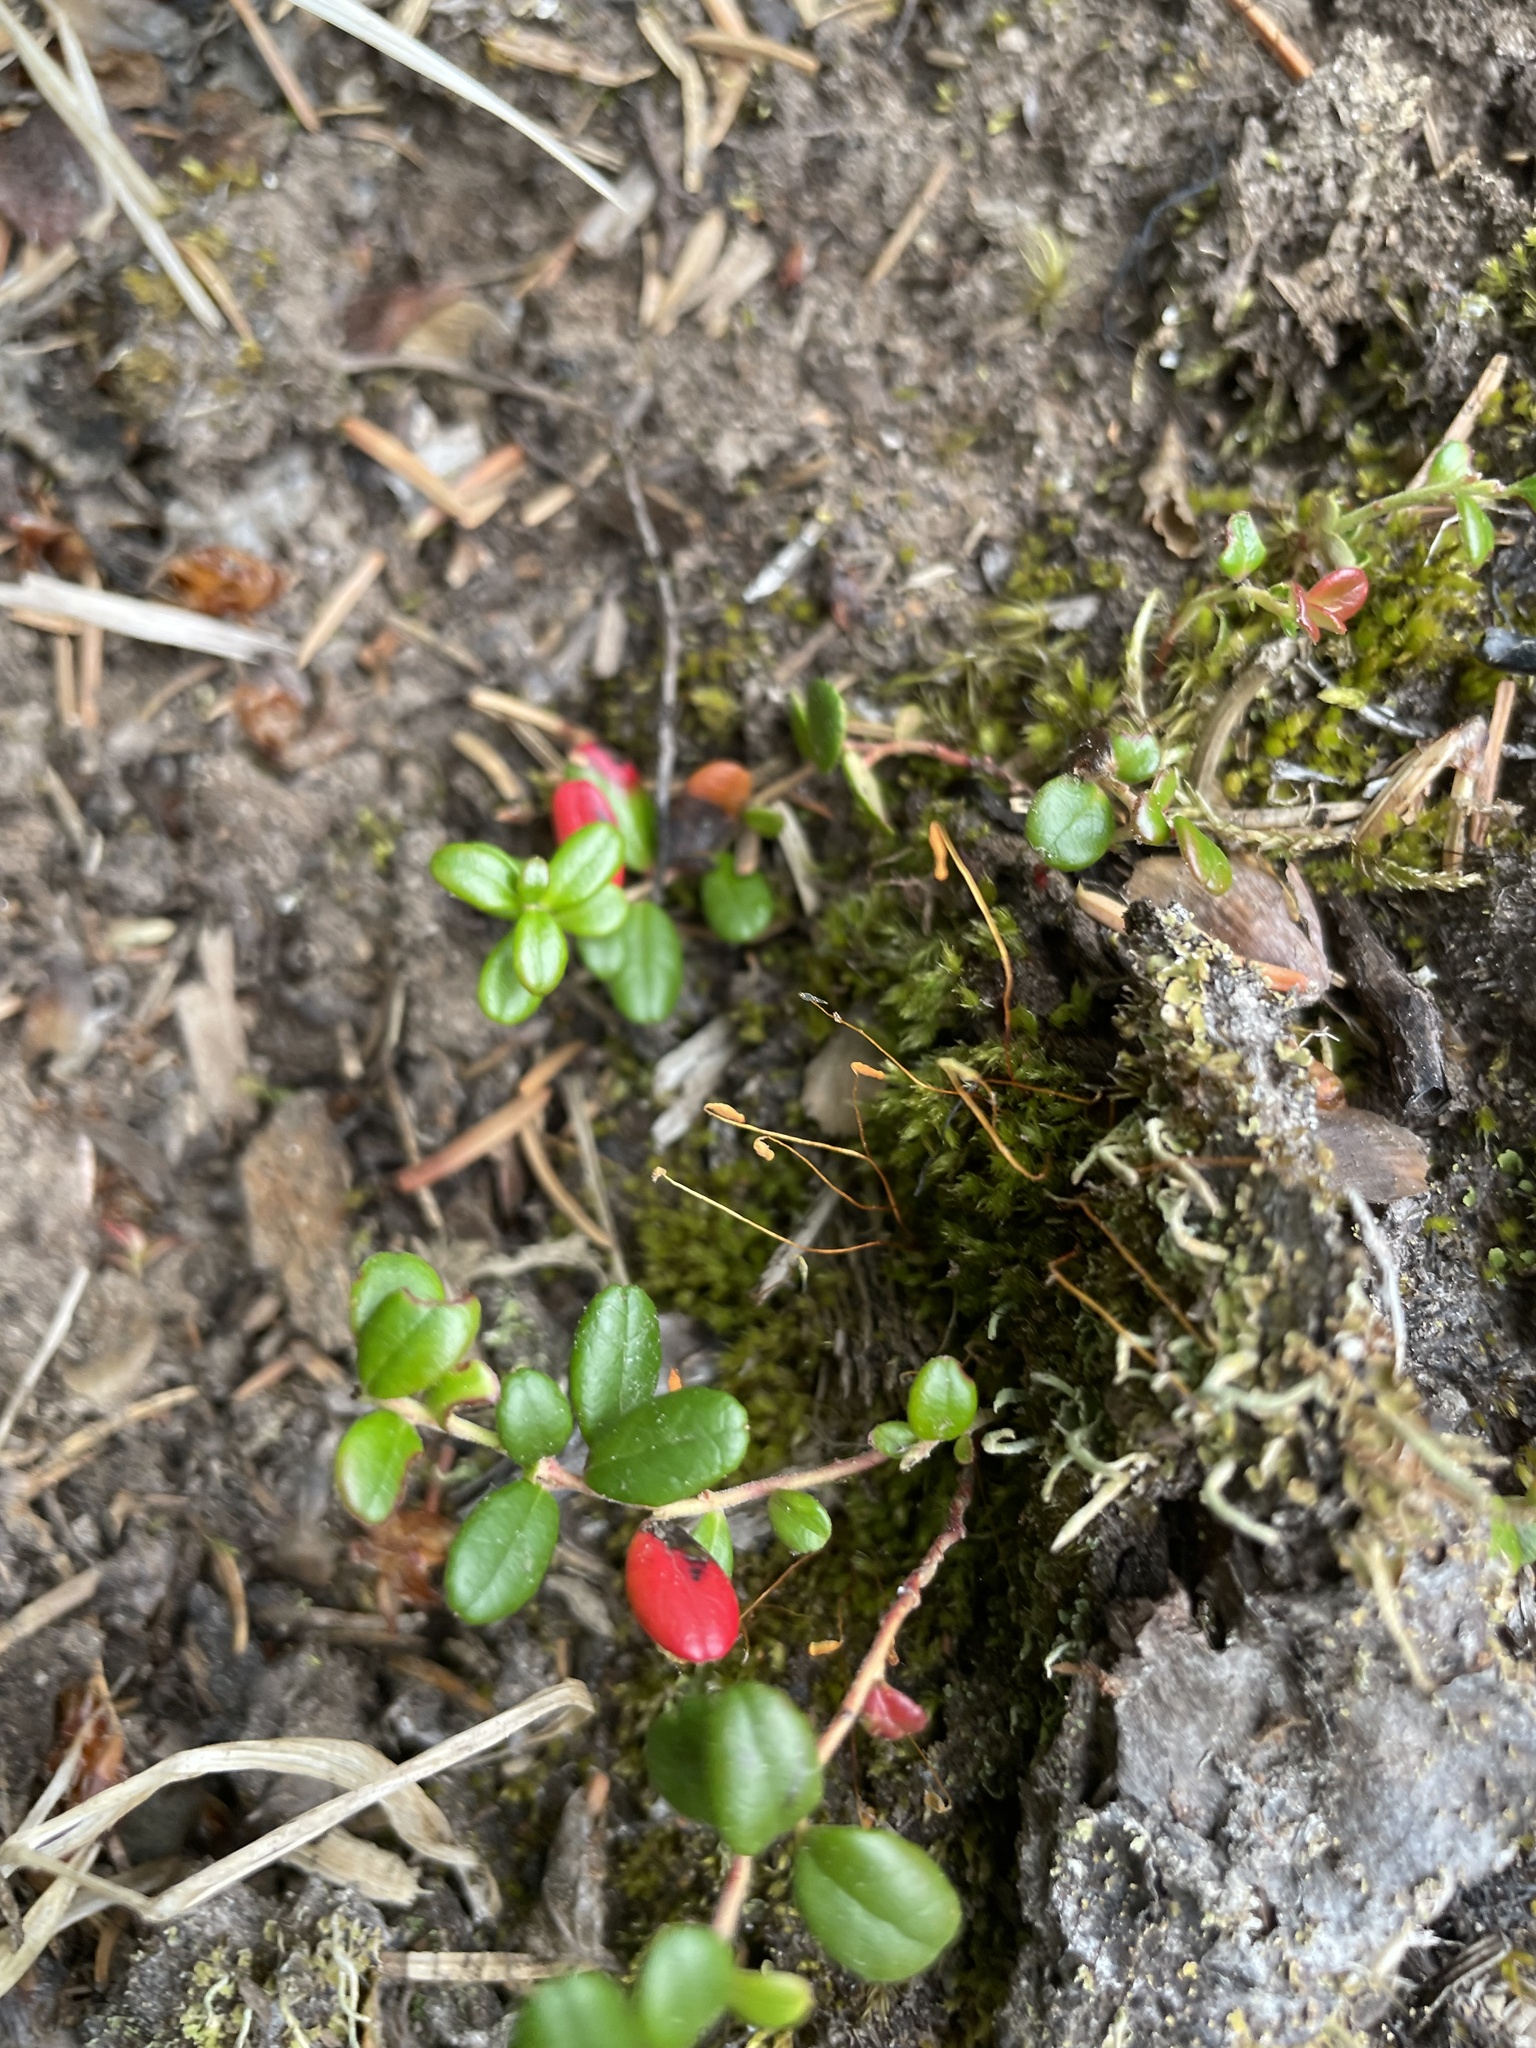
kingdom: Plantae
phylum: Tracheophyta
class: Magnoliopsida
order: Ericales
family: Ericaceae
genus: Vaccinium
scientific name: Vaccinium vitis-idaea
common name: Cowberry
